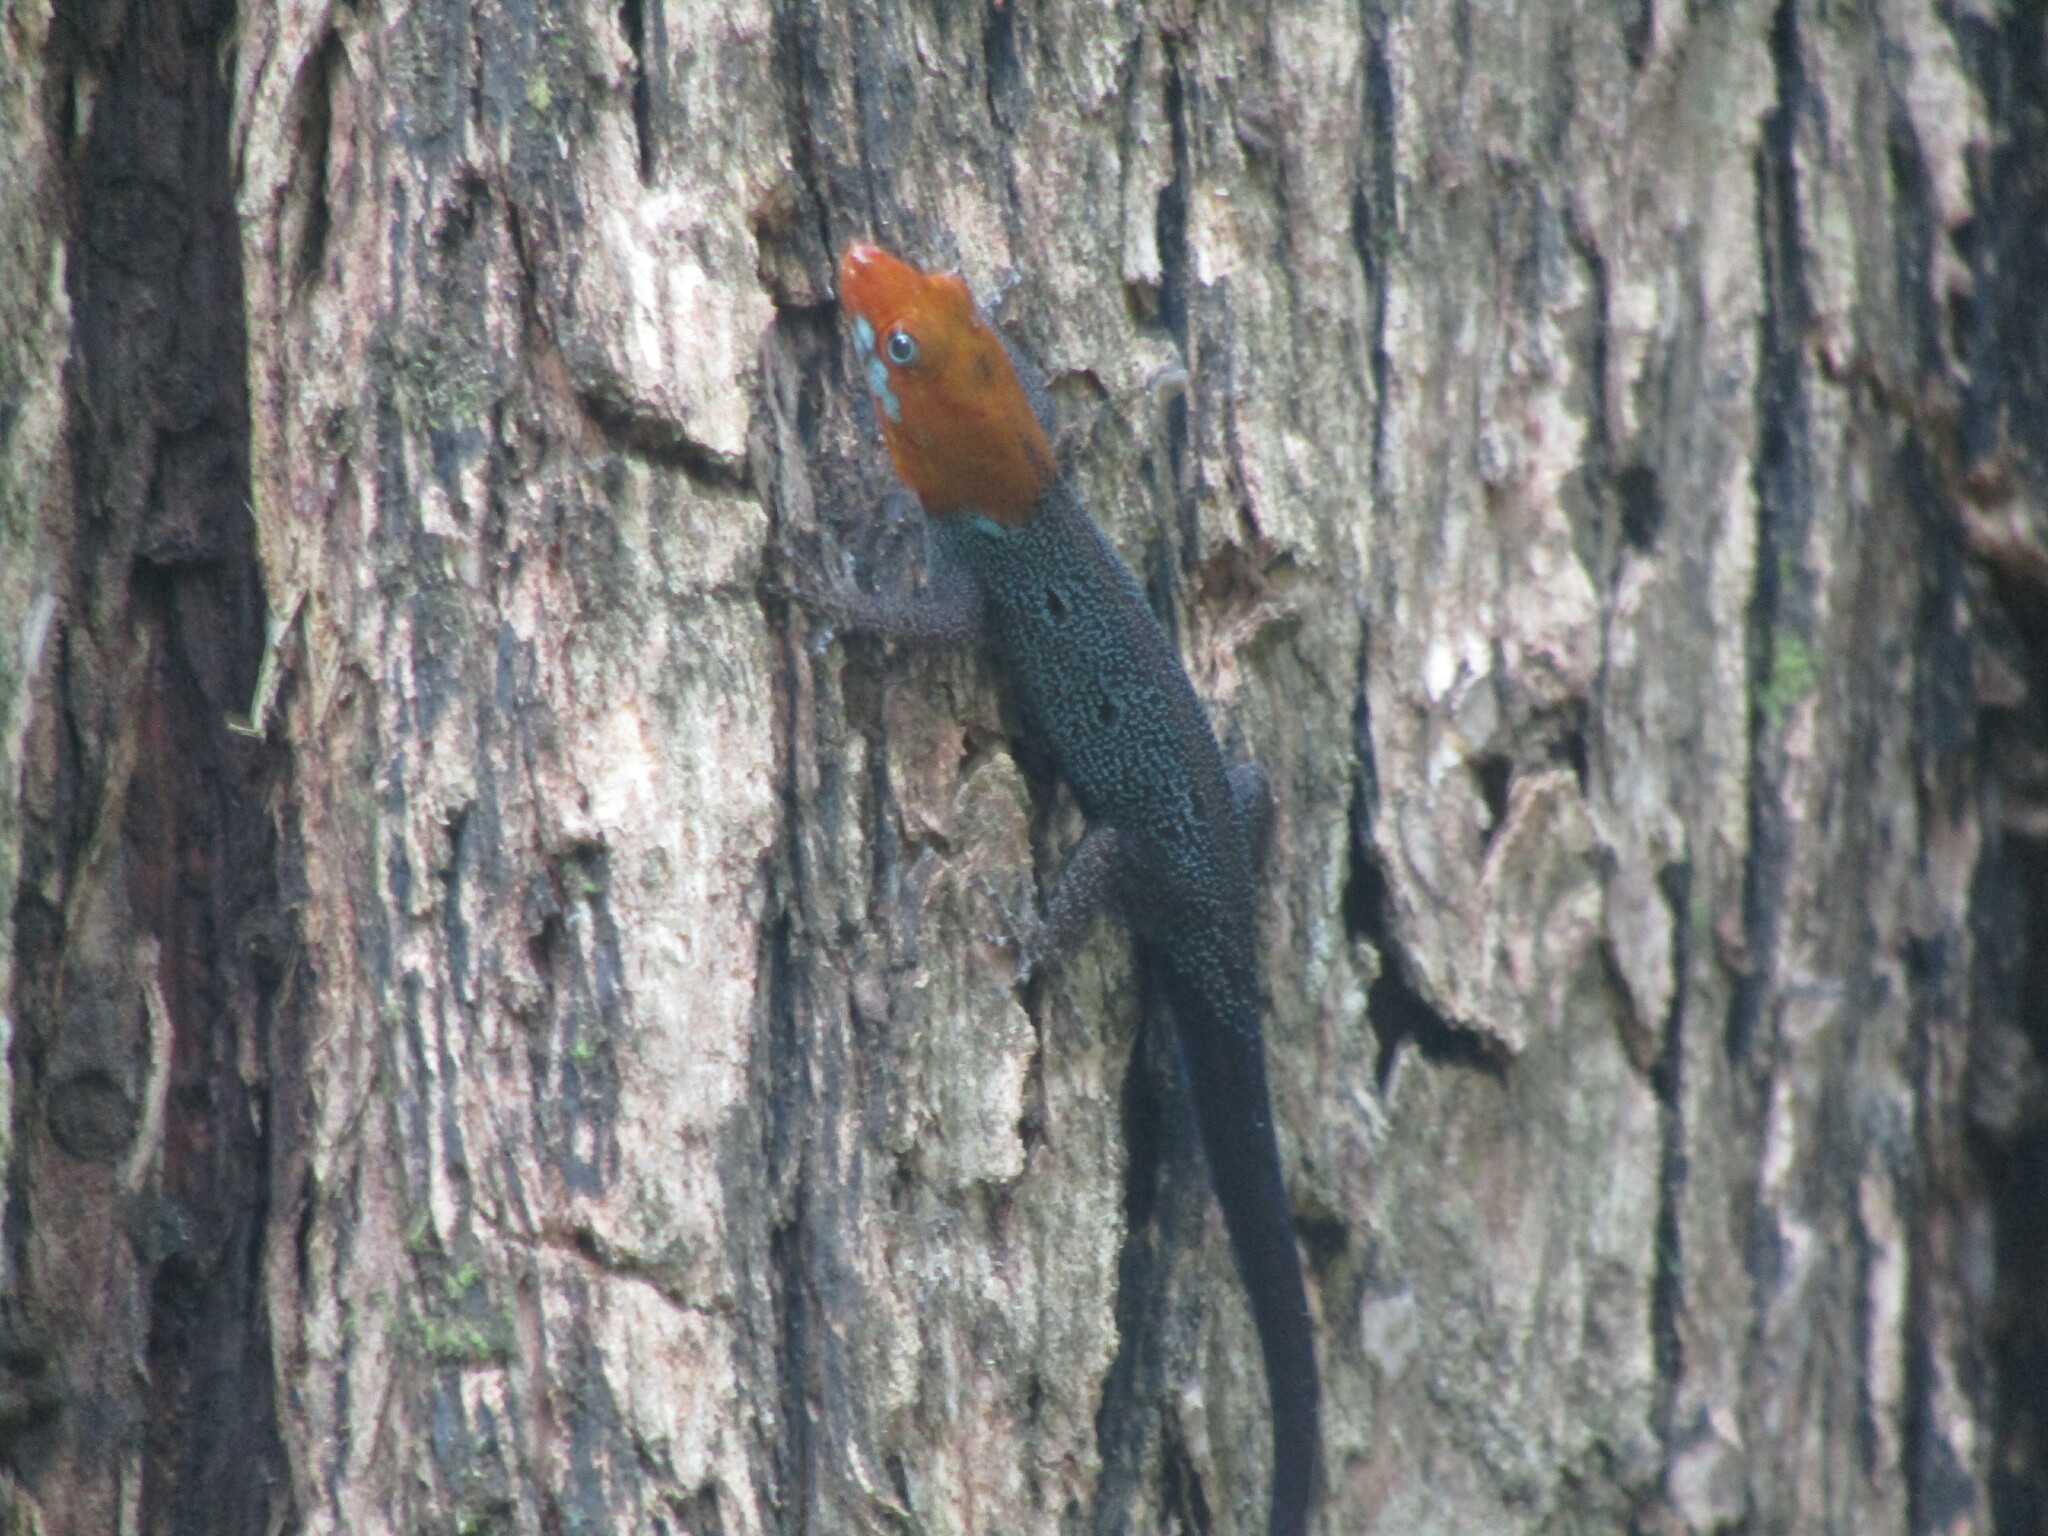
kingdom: Animalia
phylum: Chordata
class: Squamata
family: Sphaerodactylidae
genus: Gonatodes
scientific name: Gonatodes albogularis
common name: Yellow-headed gecko
